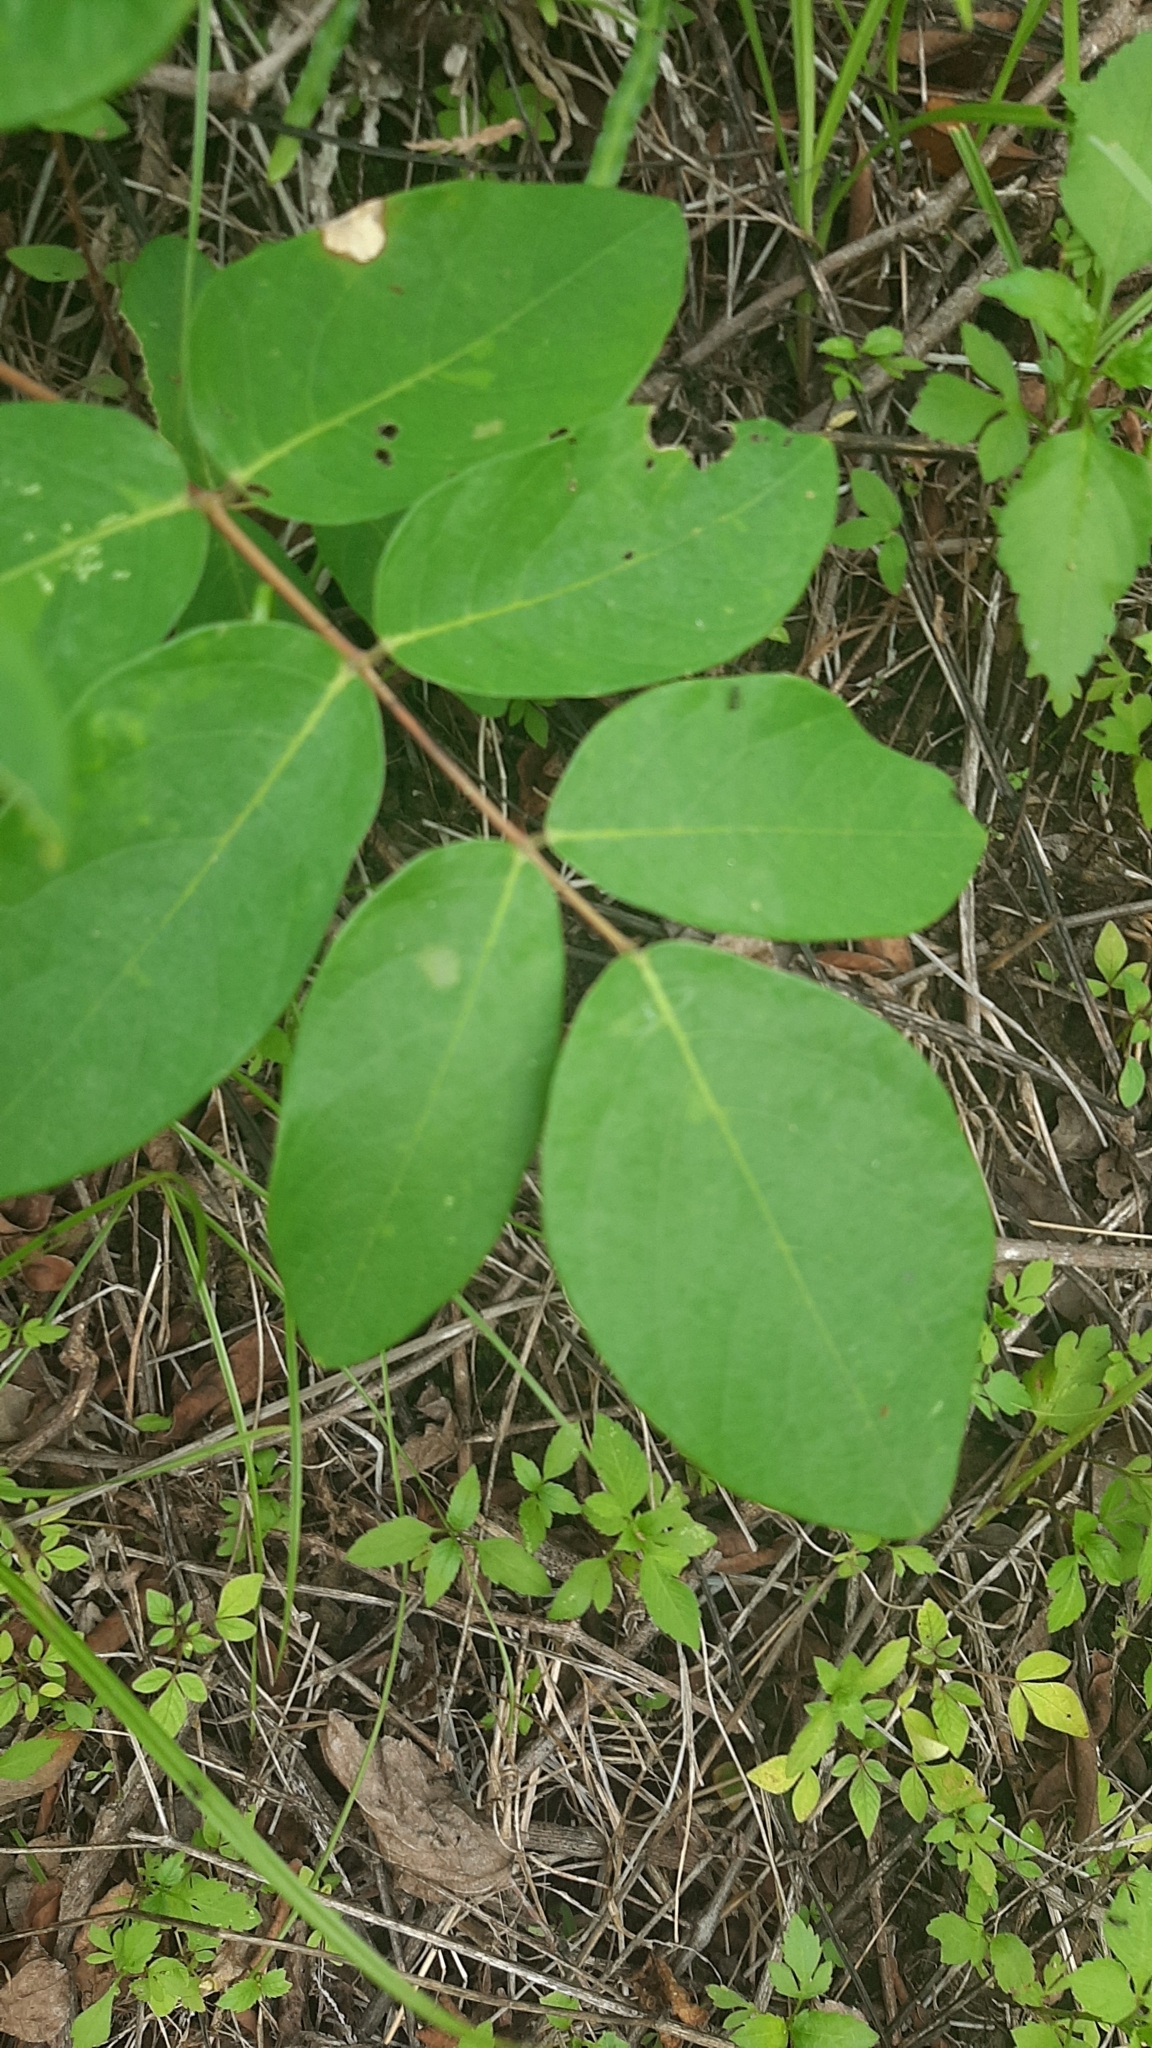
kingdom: Plantae
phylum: Tracheophyta
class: Magnoliopsida
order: Fabales
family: Fabaceae
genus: Uraria
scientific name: Uraria crinita
